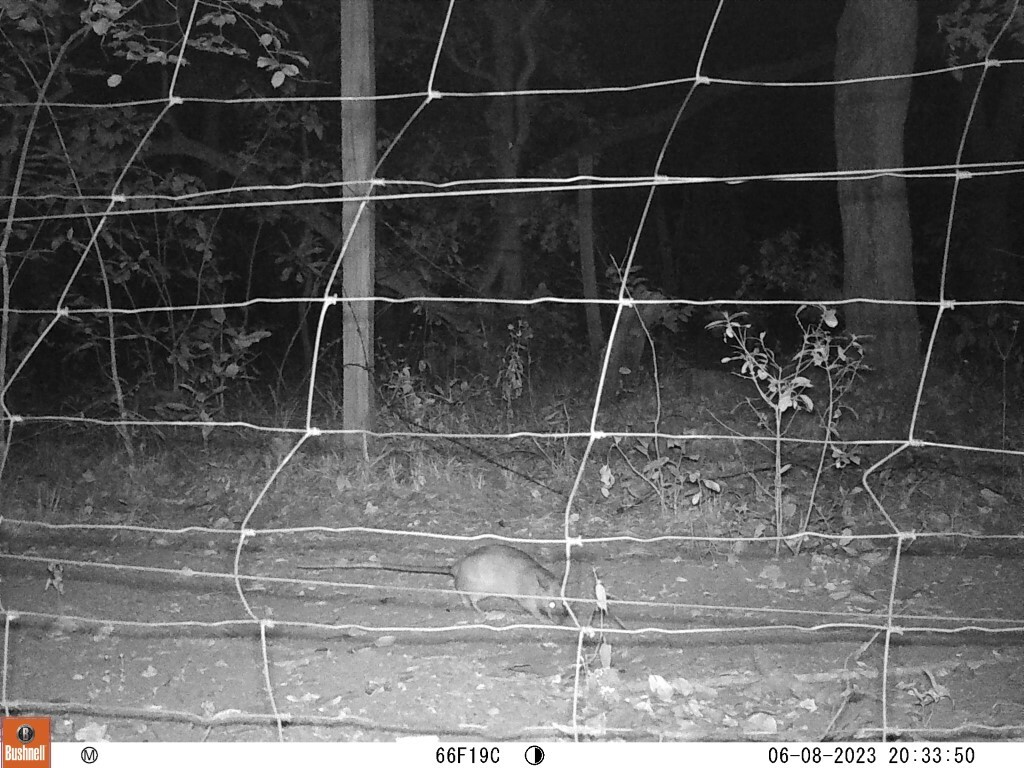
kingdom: Animalia
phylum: Chordata
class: Mammalia
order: Rodentia
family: Nesomyidae
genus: Cricetomys
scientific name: Cricetomys ansorgei
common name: Southern giant pouched rat
